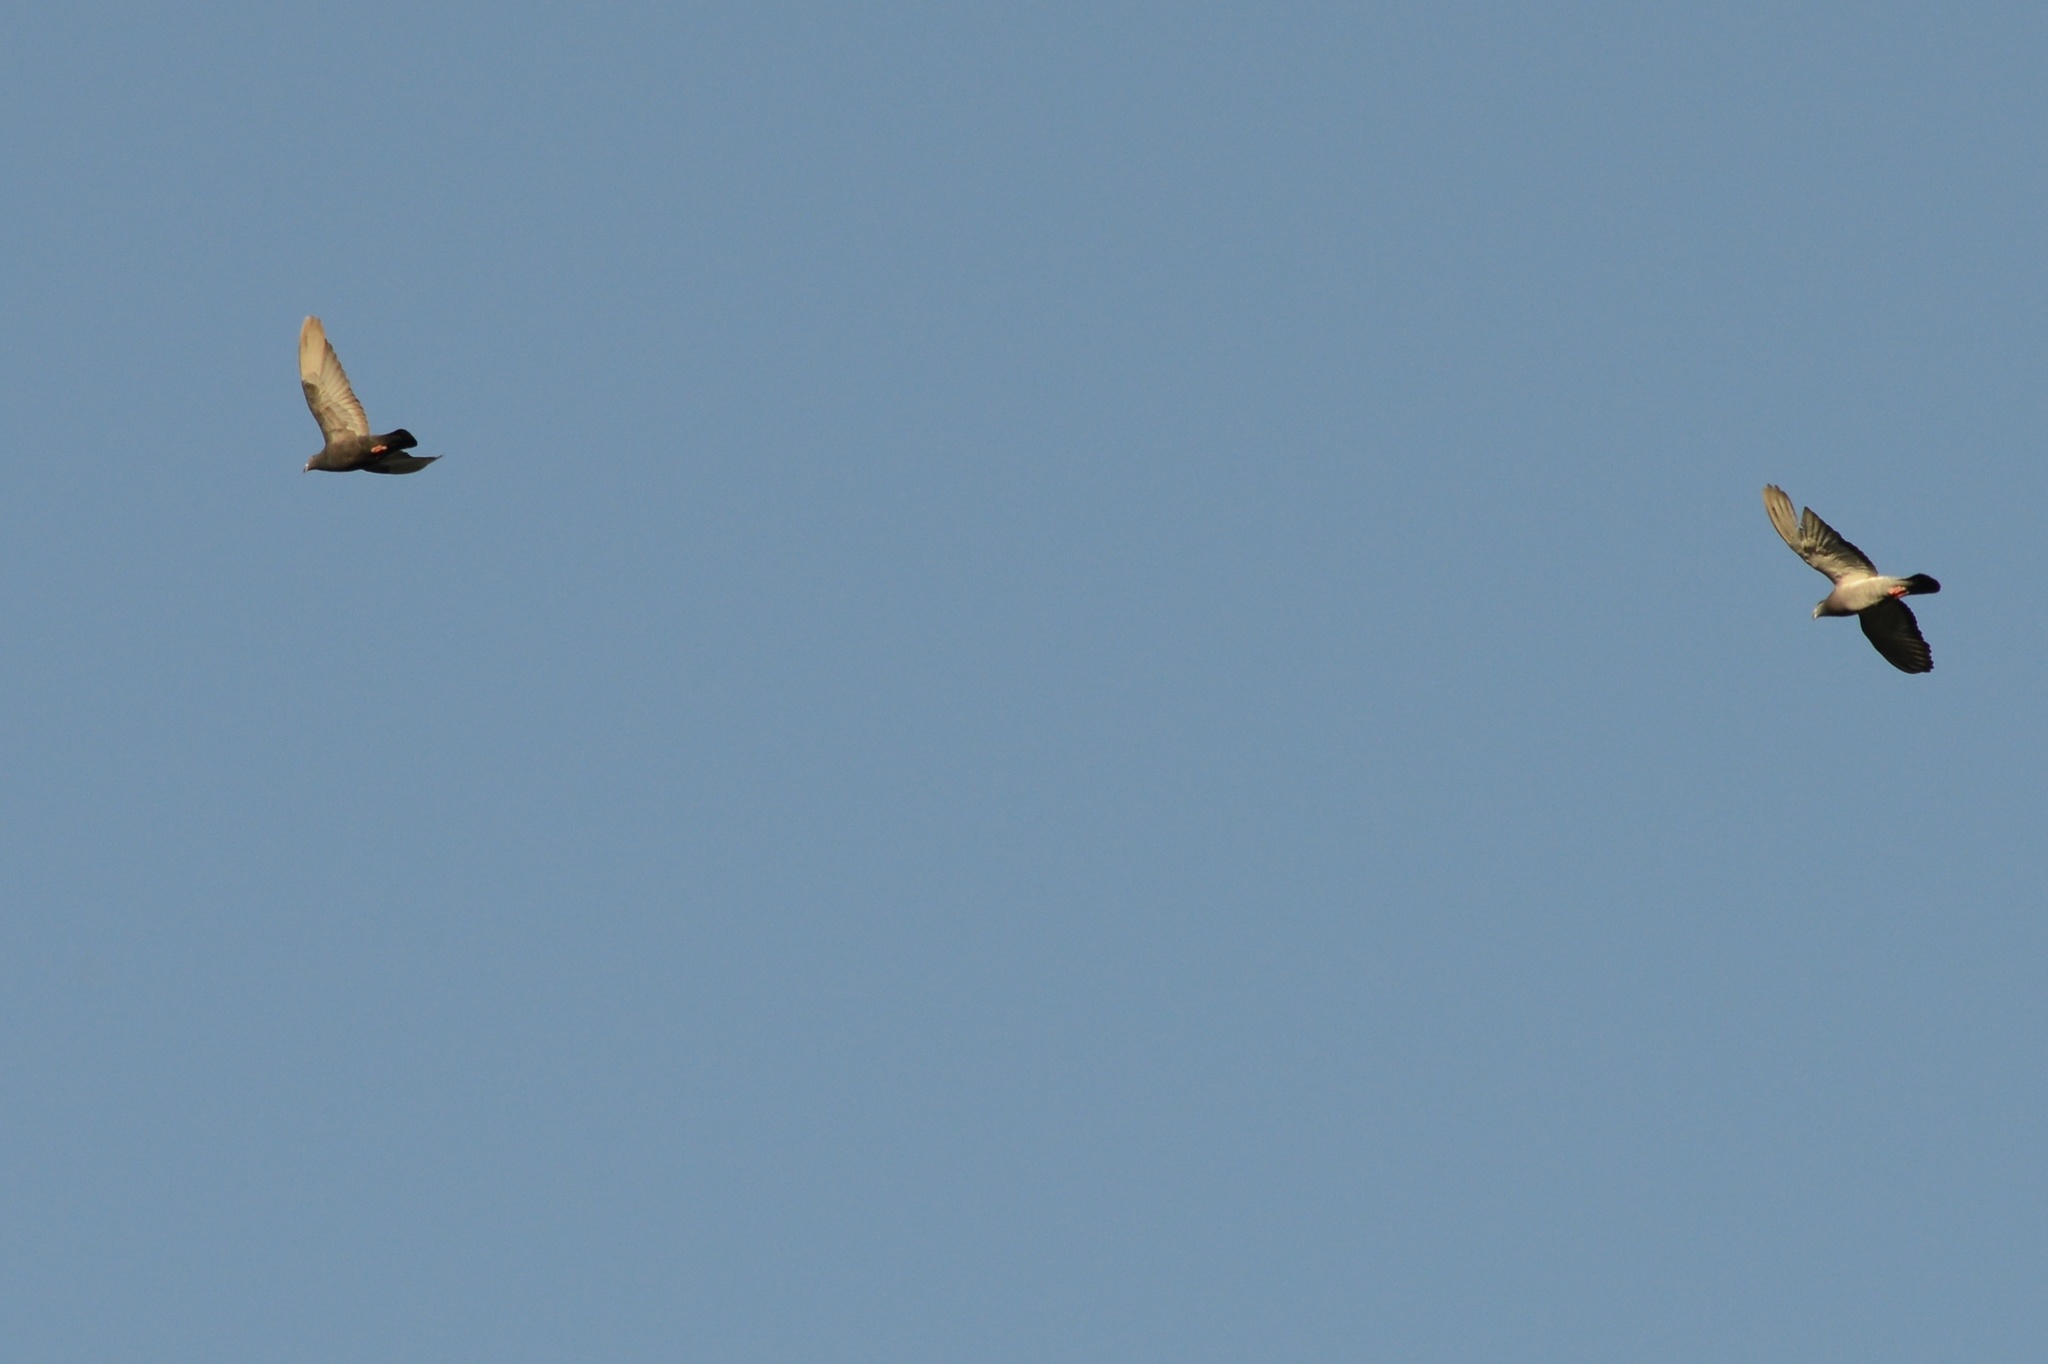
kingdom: Animalia
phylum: Chordata
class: Aves
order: Columbiformes
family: Columbidae
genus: Columba
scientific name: Columba livia
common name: Rock pigeon
